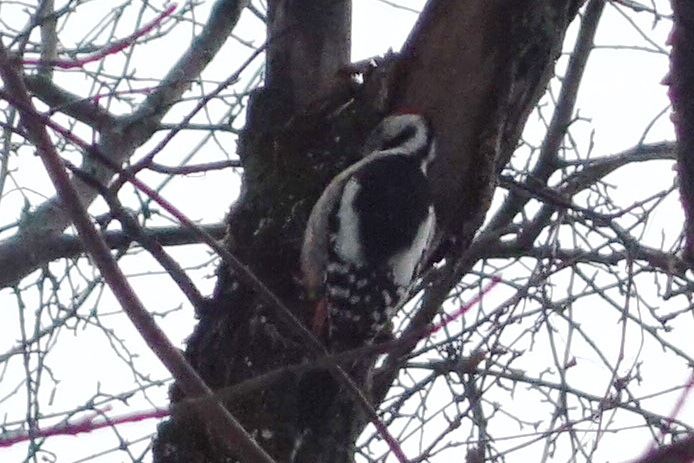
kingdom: Animalia
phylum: Chordata
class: Aves
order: Piciformes
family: Picidae
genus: Dendrocopos
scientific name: Dendrocopos syriacus
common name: Syrian woodpecker
